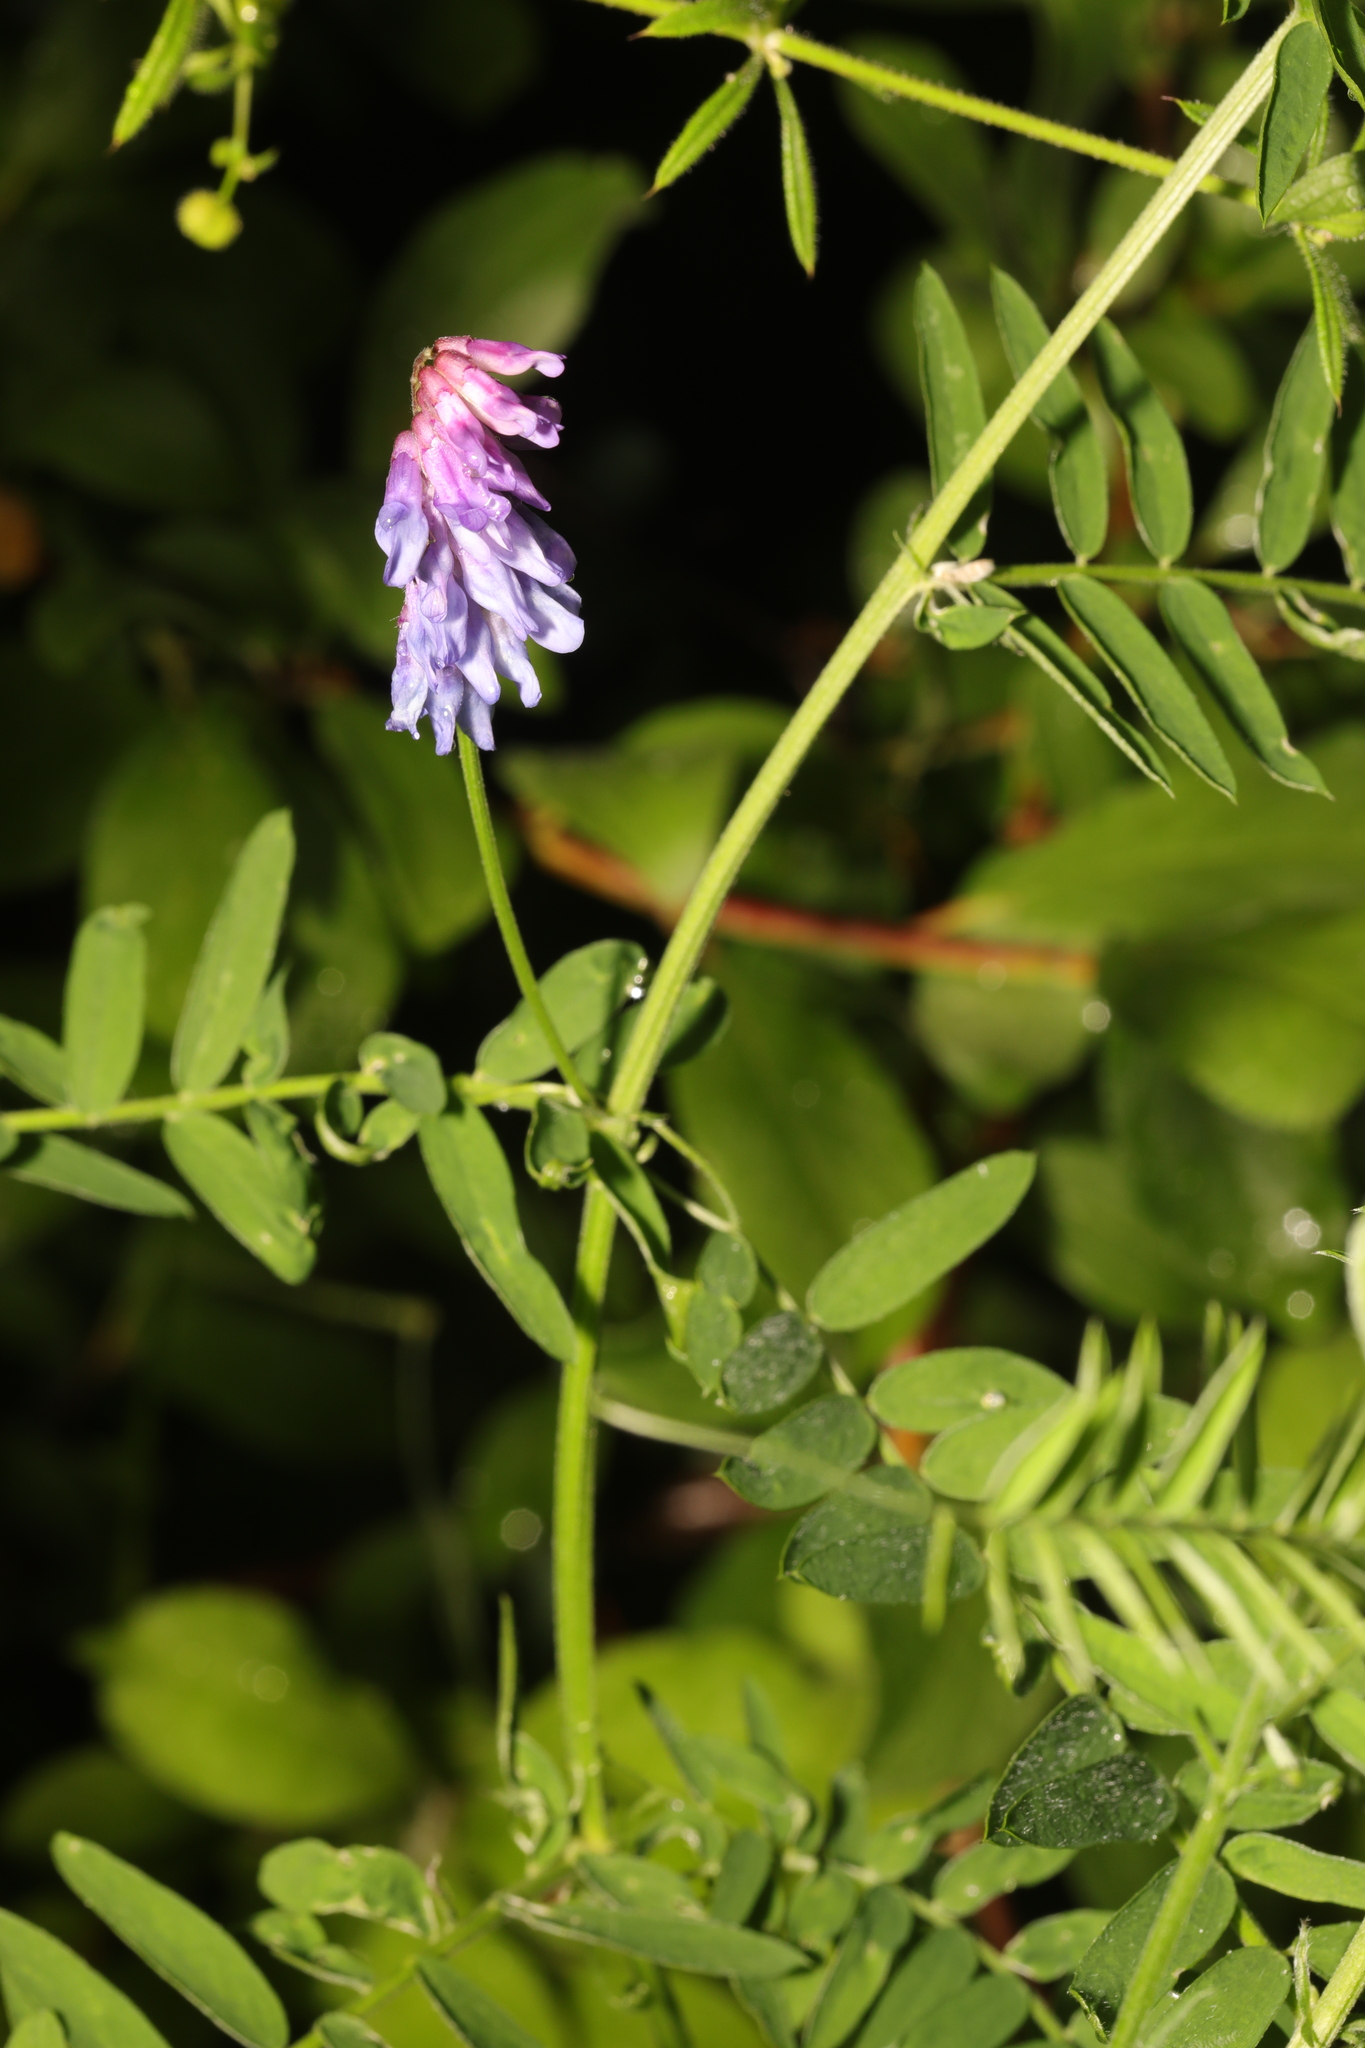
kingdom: Plantae
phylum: Tracheophyta
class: Magnoliopsida
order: Fabales
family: Fabaceae
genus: Vicia
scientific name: Vicia cracca
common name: Bird vetch
